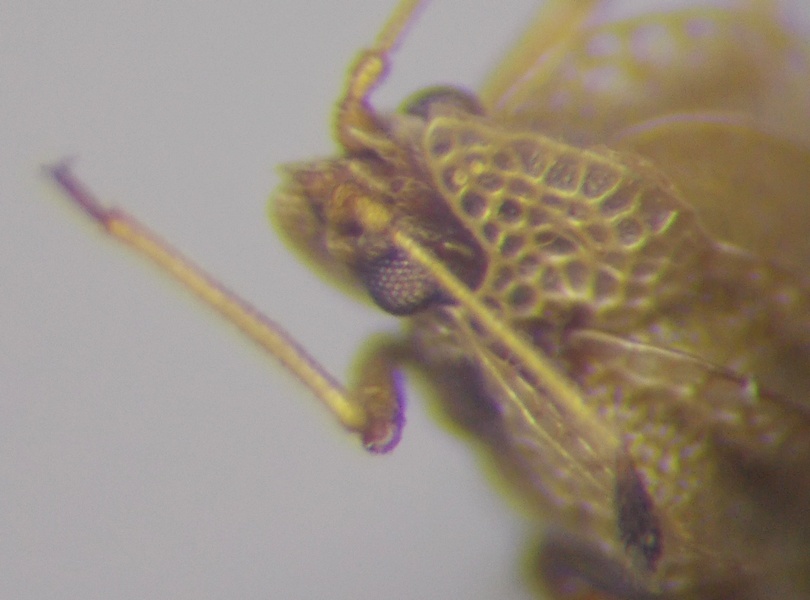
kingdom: Plantae
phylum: Tracheophyta
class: Liliopsida
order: Poales
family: Juncaceae
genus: Elasmotropis
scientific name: Elasmotropis testacea
